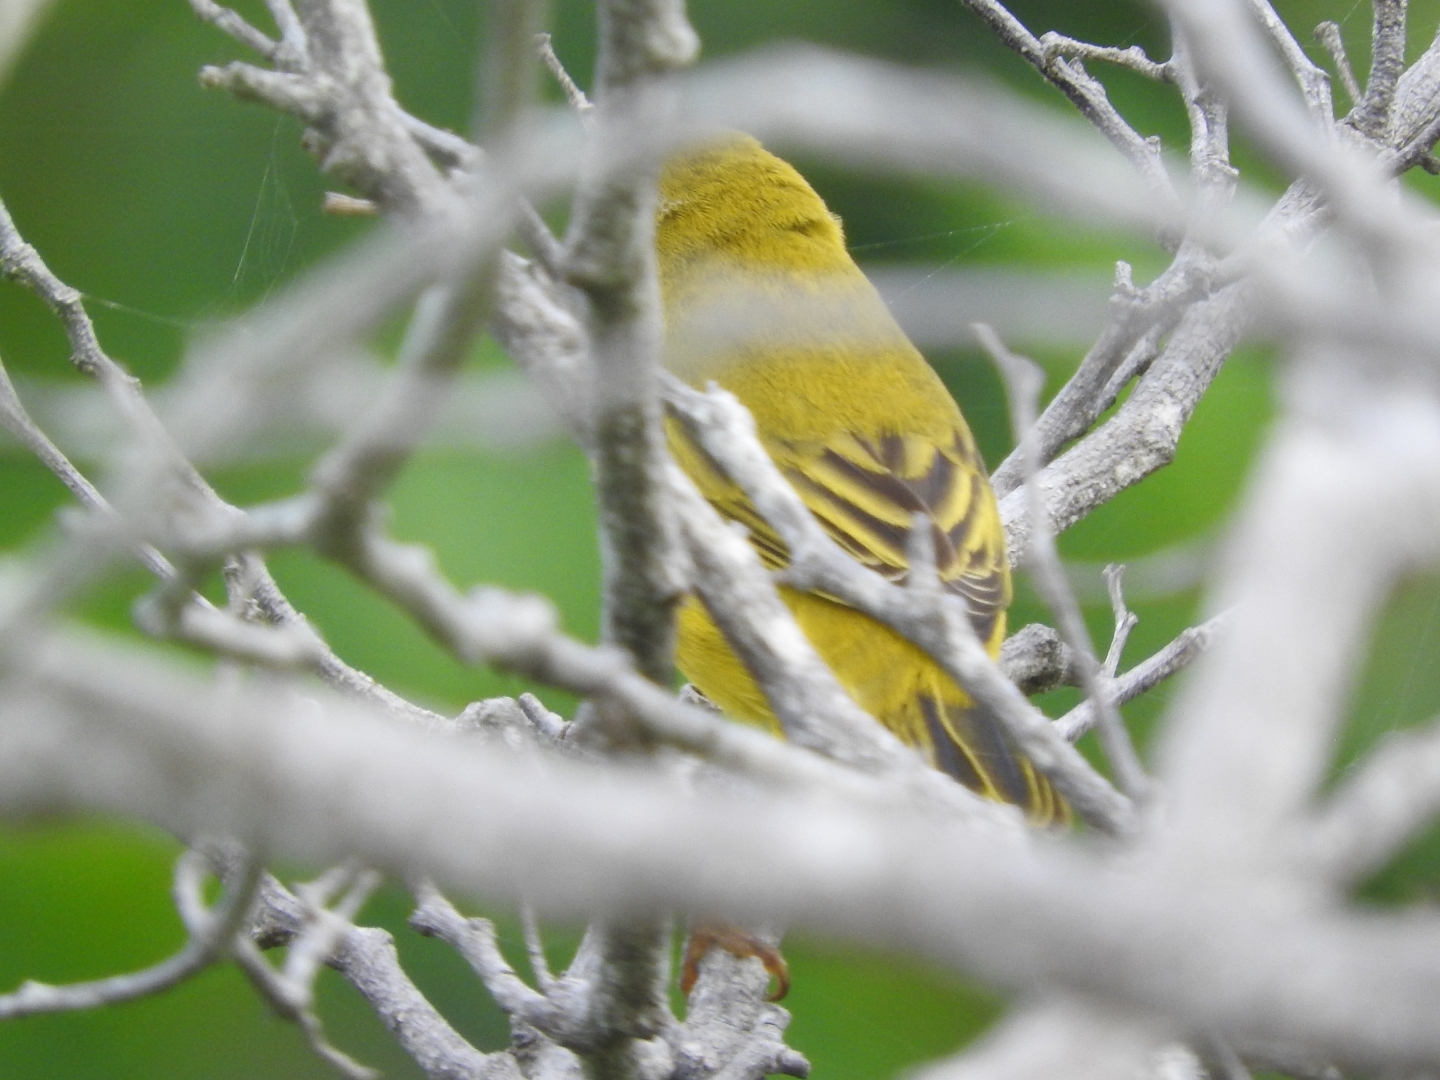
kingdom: Animalia
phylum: Chordata
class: Aves
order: Passeriformes
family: Parulidae
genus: Setophaga
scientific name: Setophaga petechia
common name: Yellow warbler
